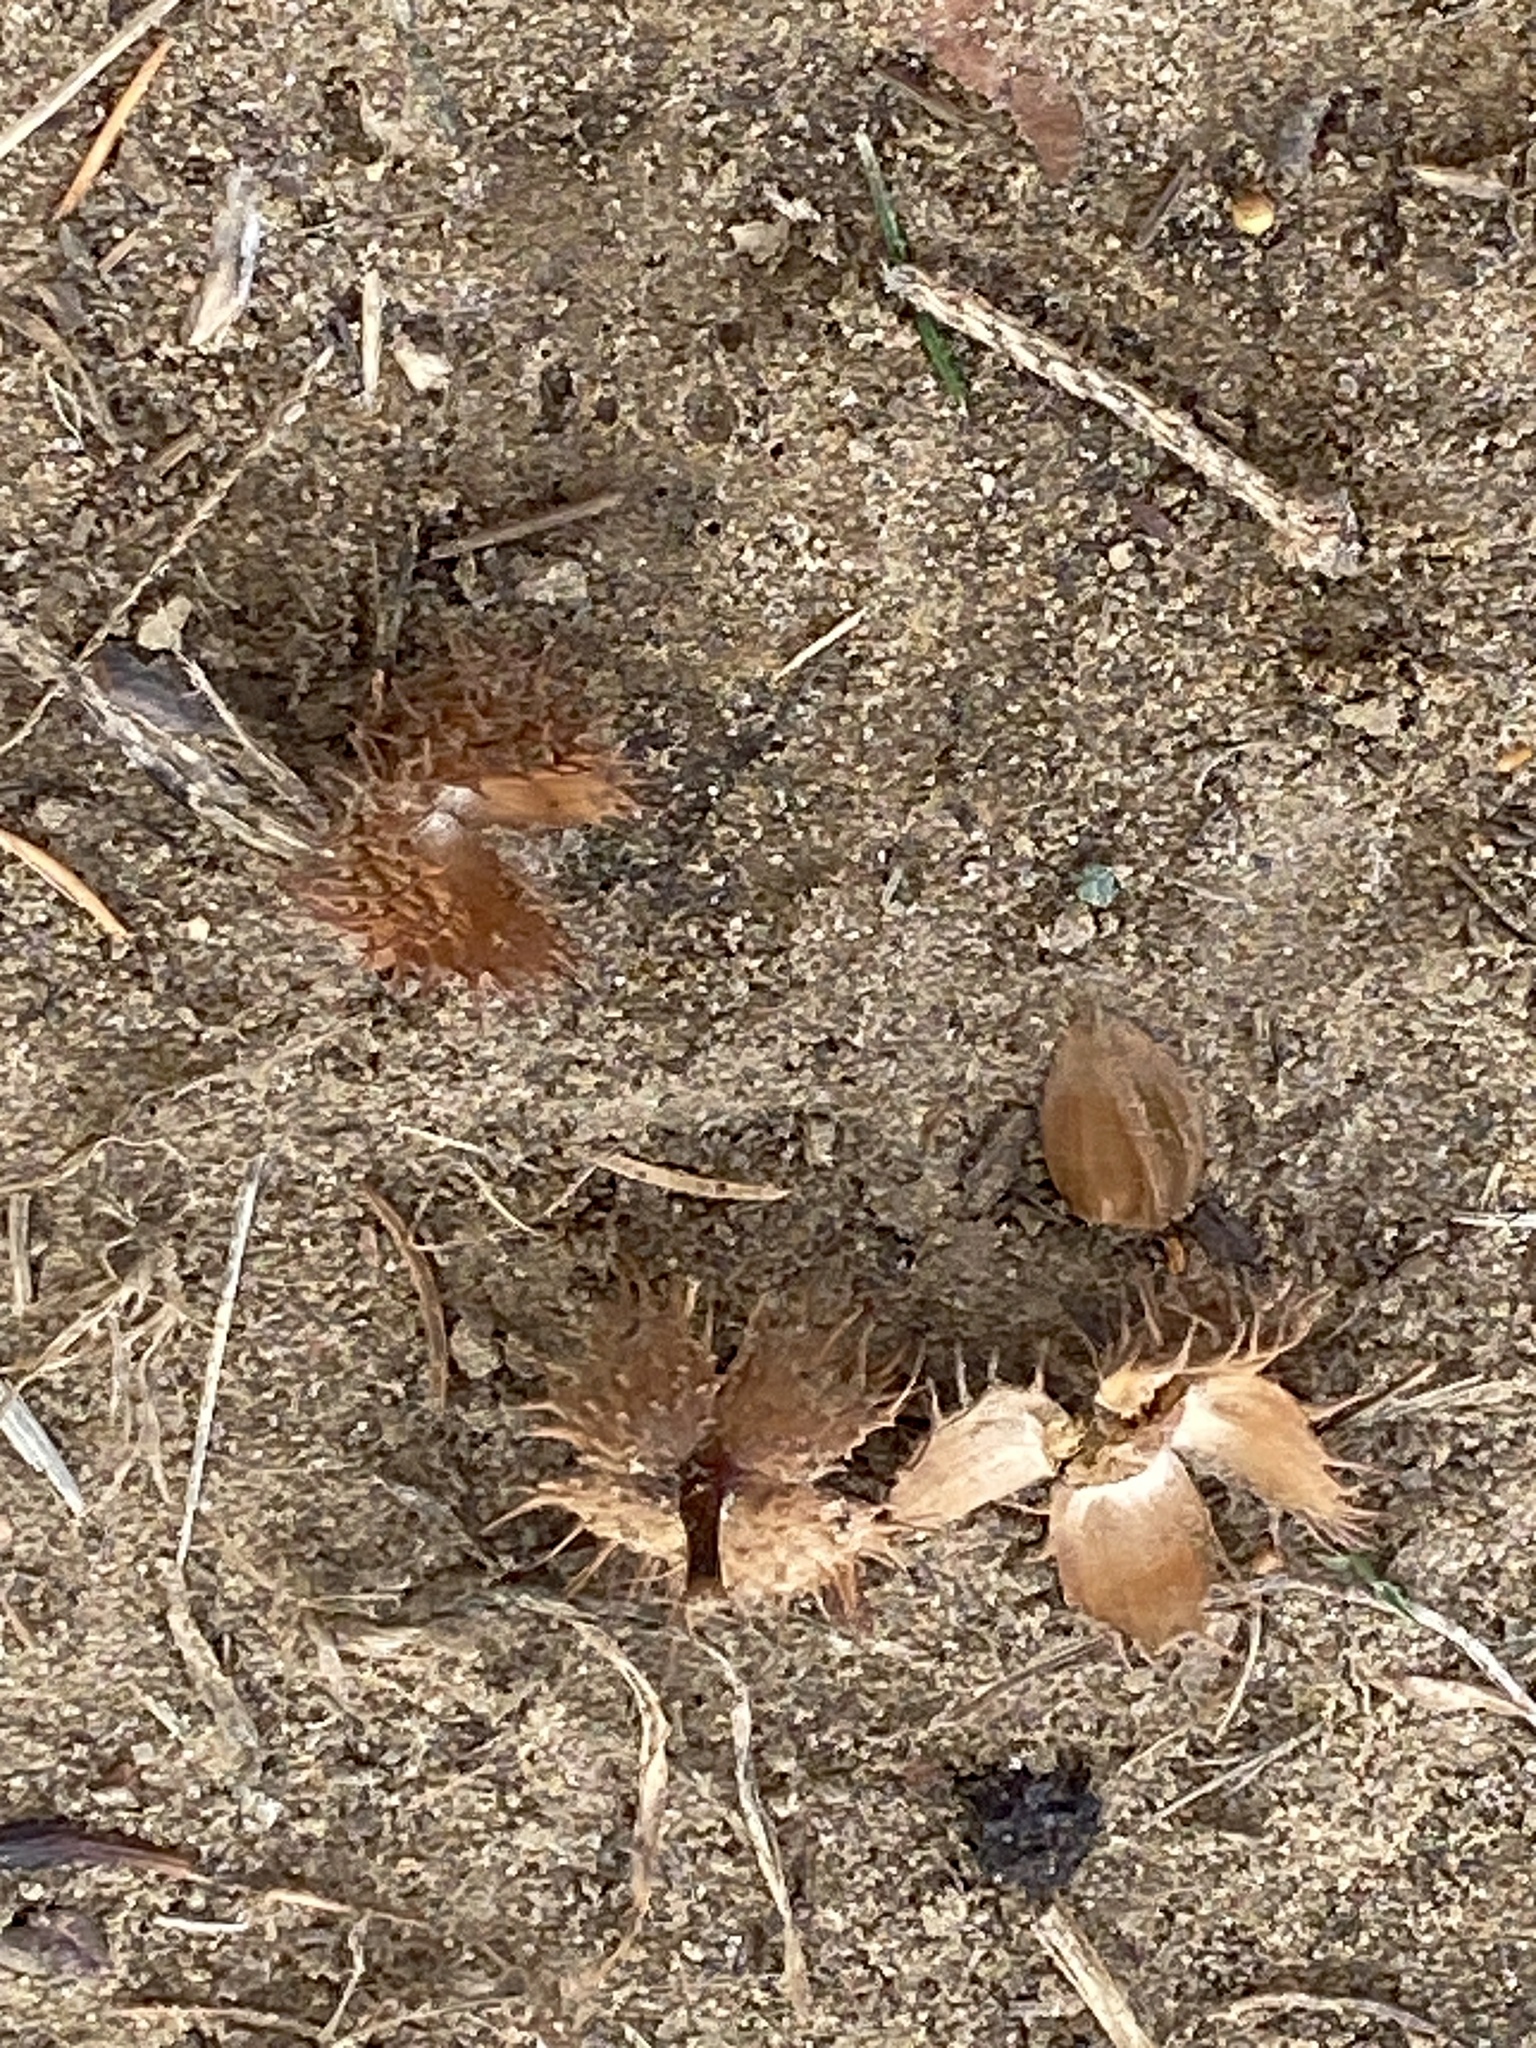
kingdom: Plantae
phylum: Tracheophyta
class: Magnoliopsida
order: Fagales
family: Fagaceae
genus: Fagus
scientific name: Fagus grandifolia
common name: American beech
